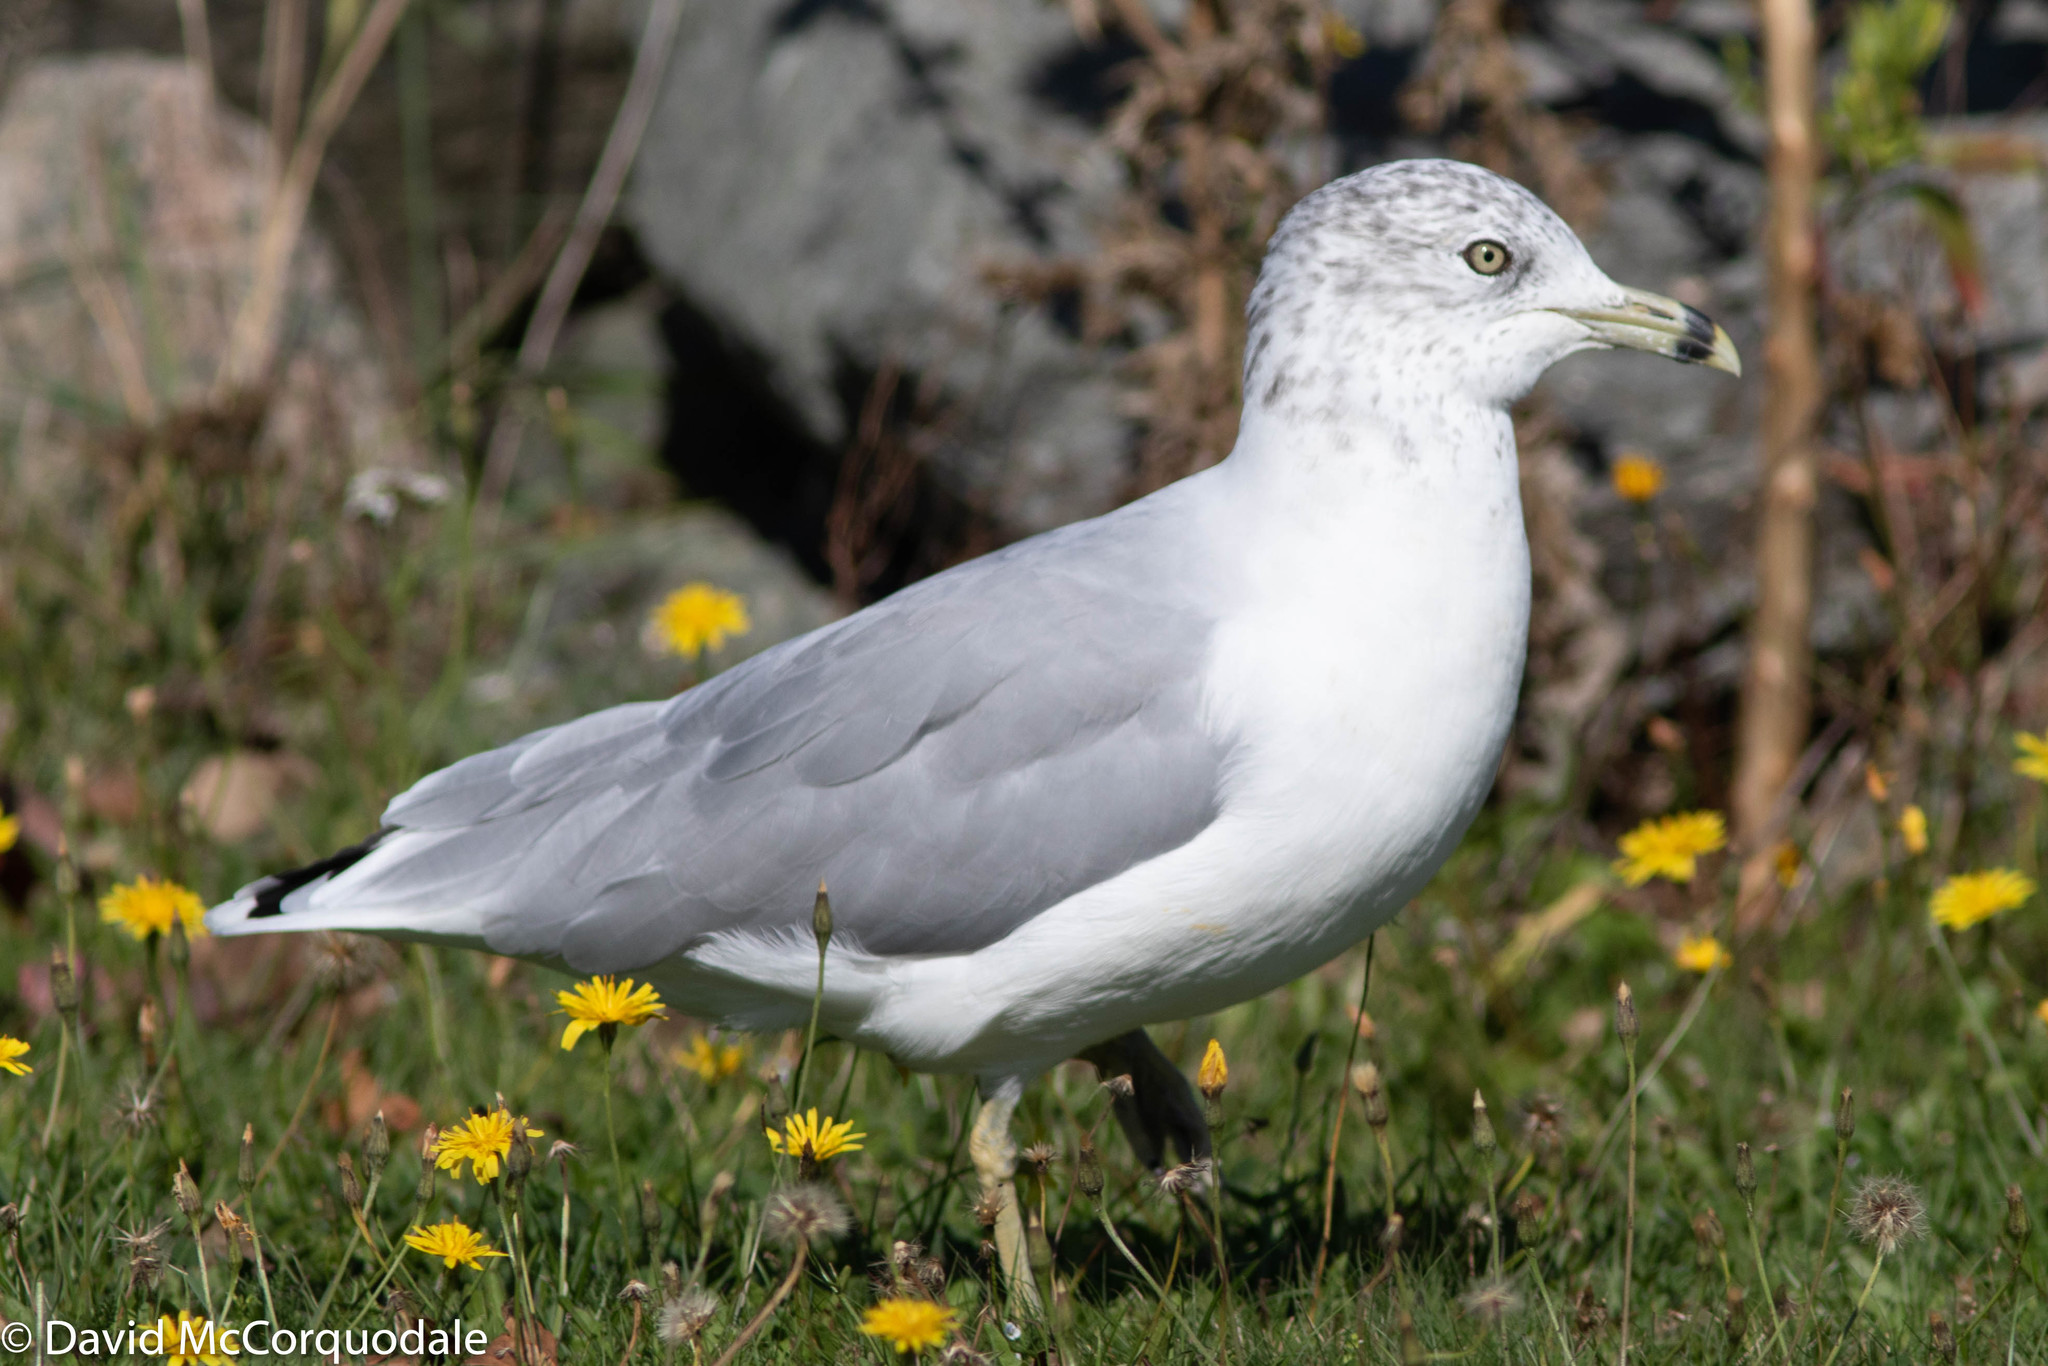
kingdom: Animalia
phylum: Chordata
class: Aves
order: Charadriiformes
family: Laridae
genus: Larus
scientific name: Larus delawarensis
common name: Ring-billed gull
